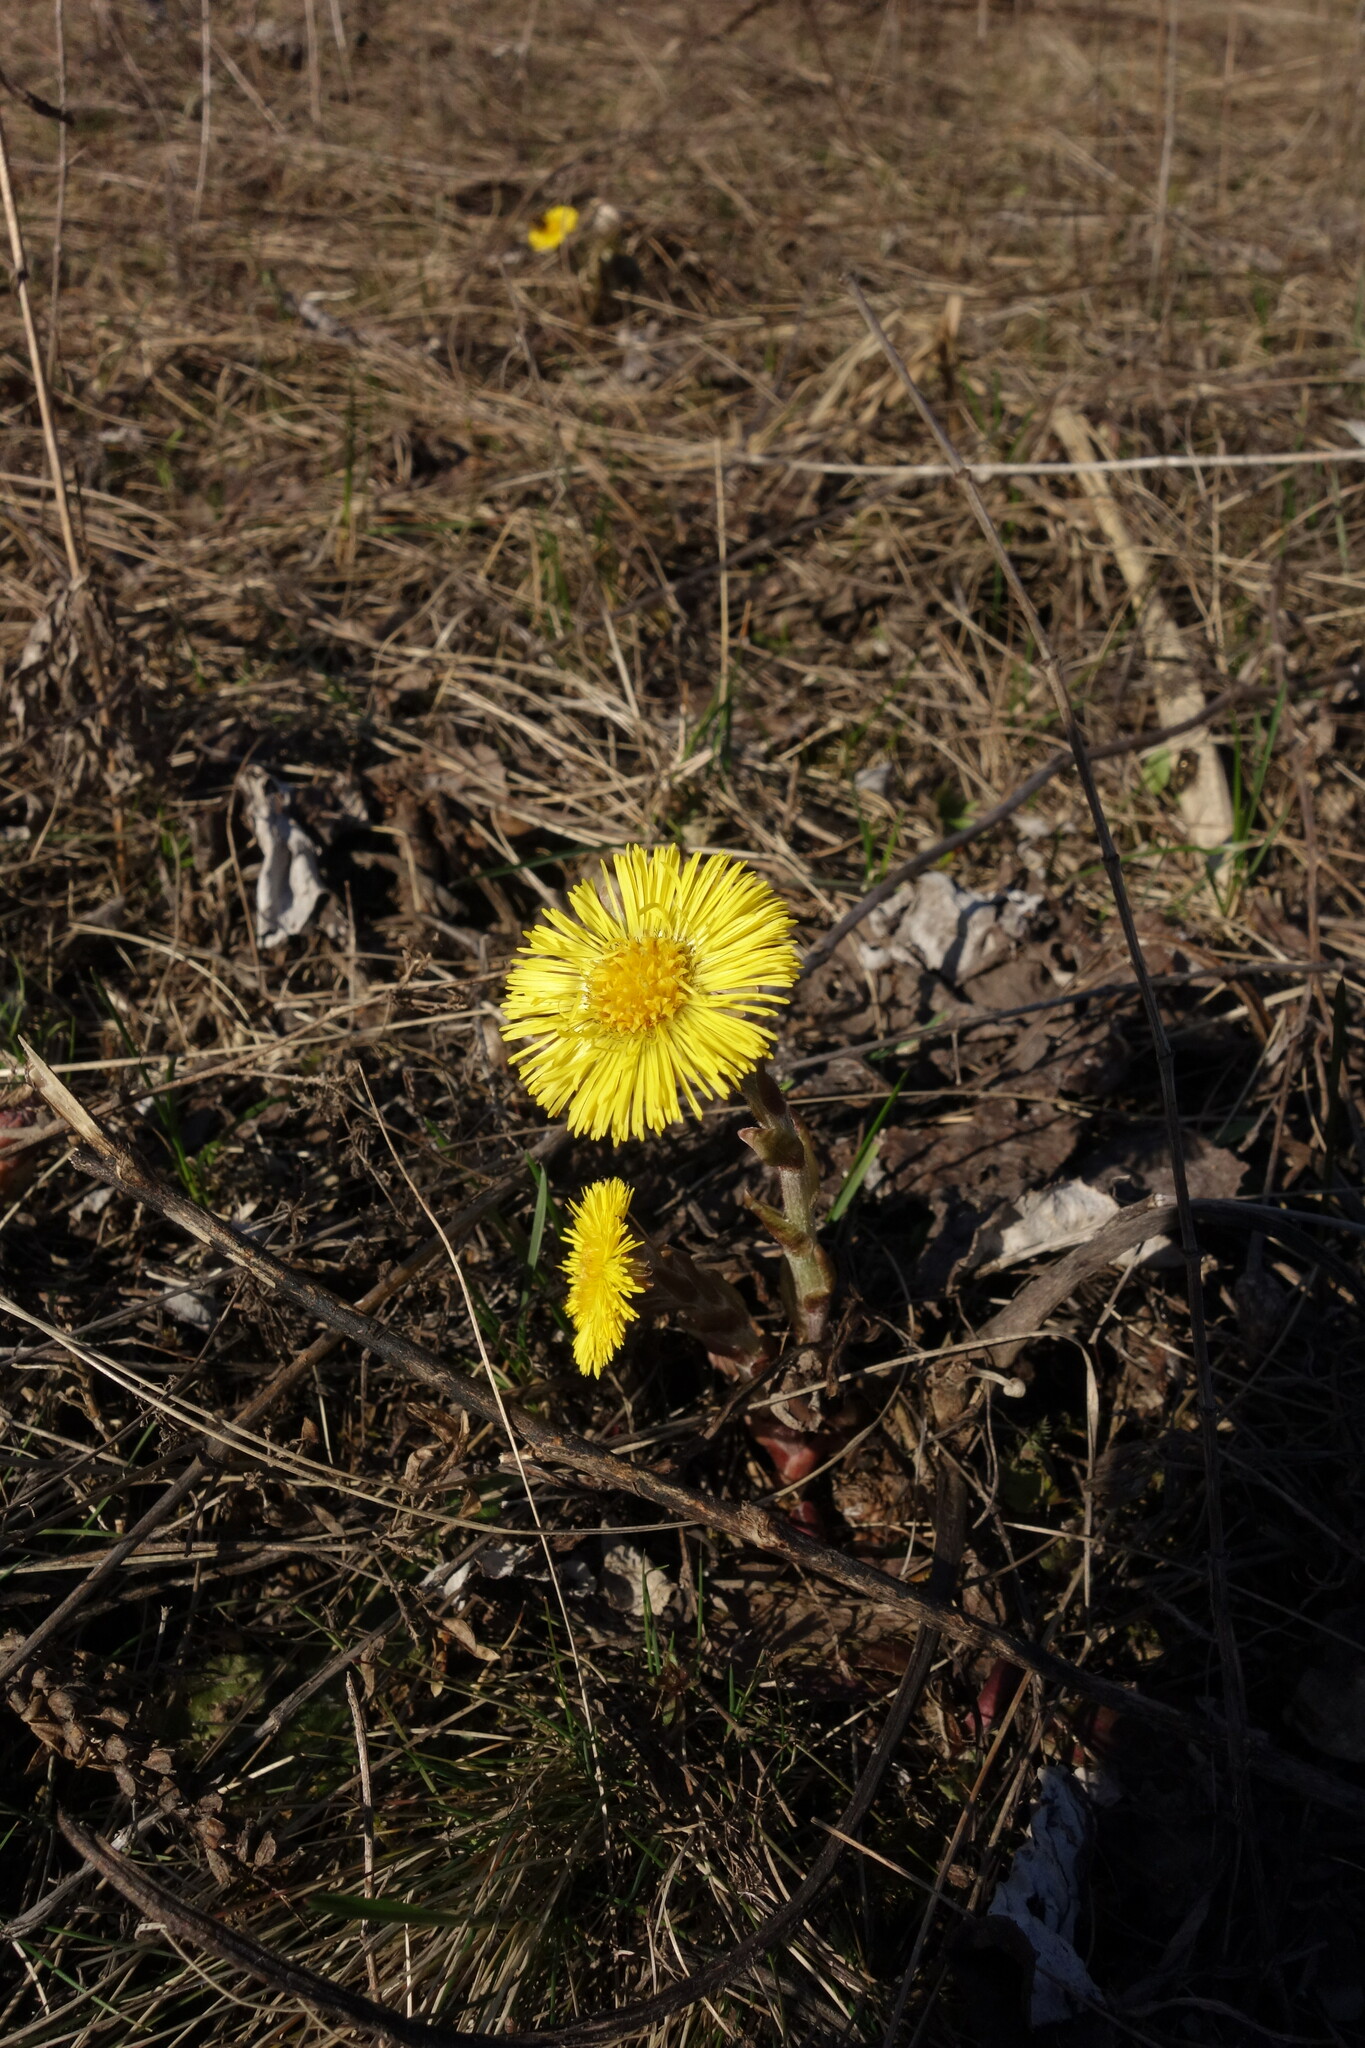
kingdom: Plantae
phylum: Tracheophyta
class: Magnoliopsida
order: Asterales
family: Asteraceae
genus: Tussilago
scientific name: Tussilago farfara
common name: Coltsfoot
